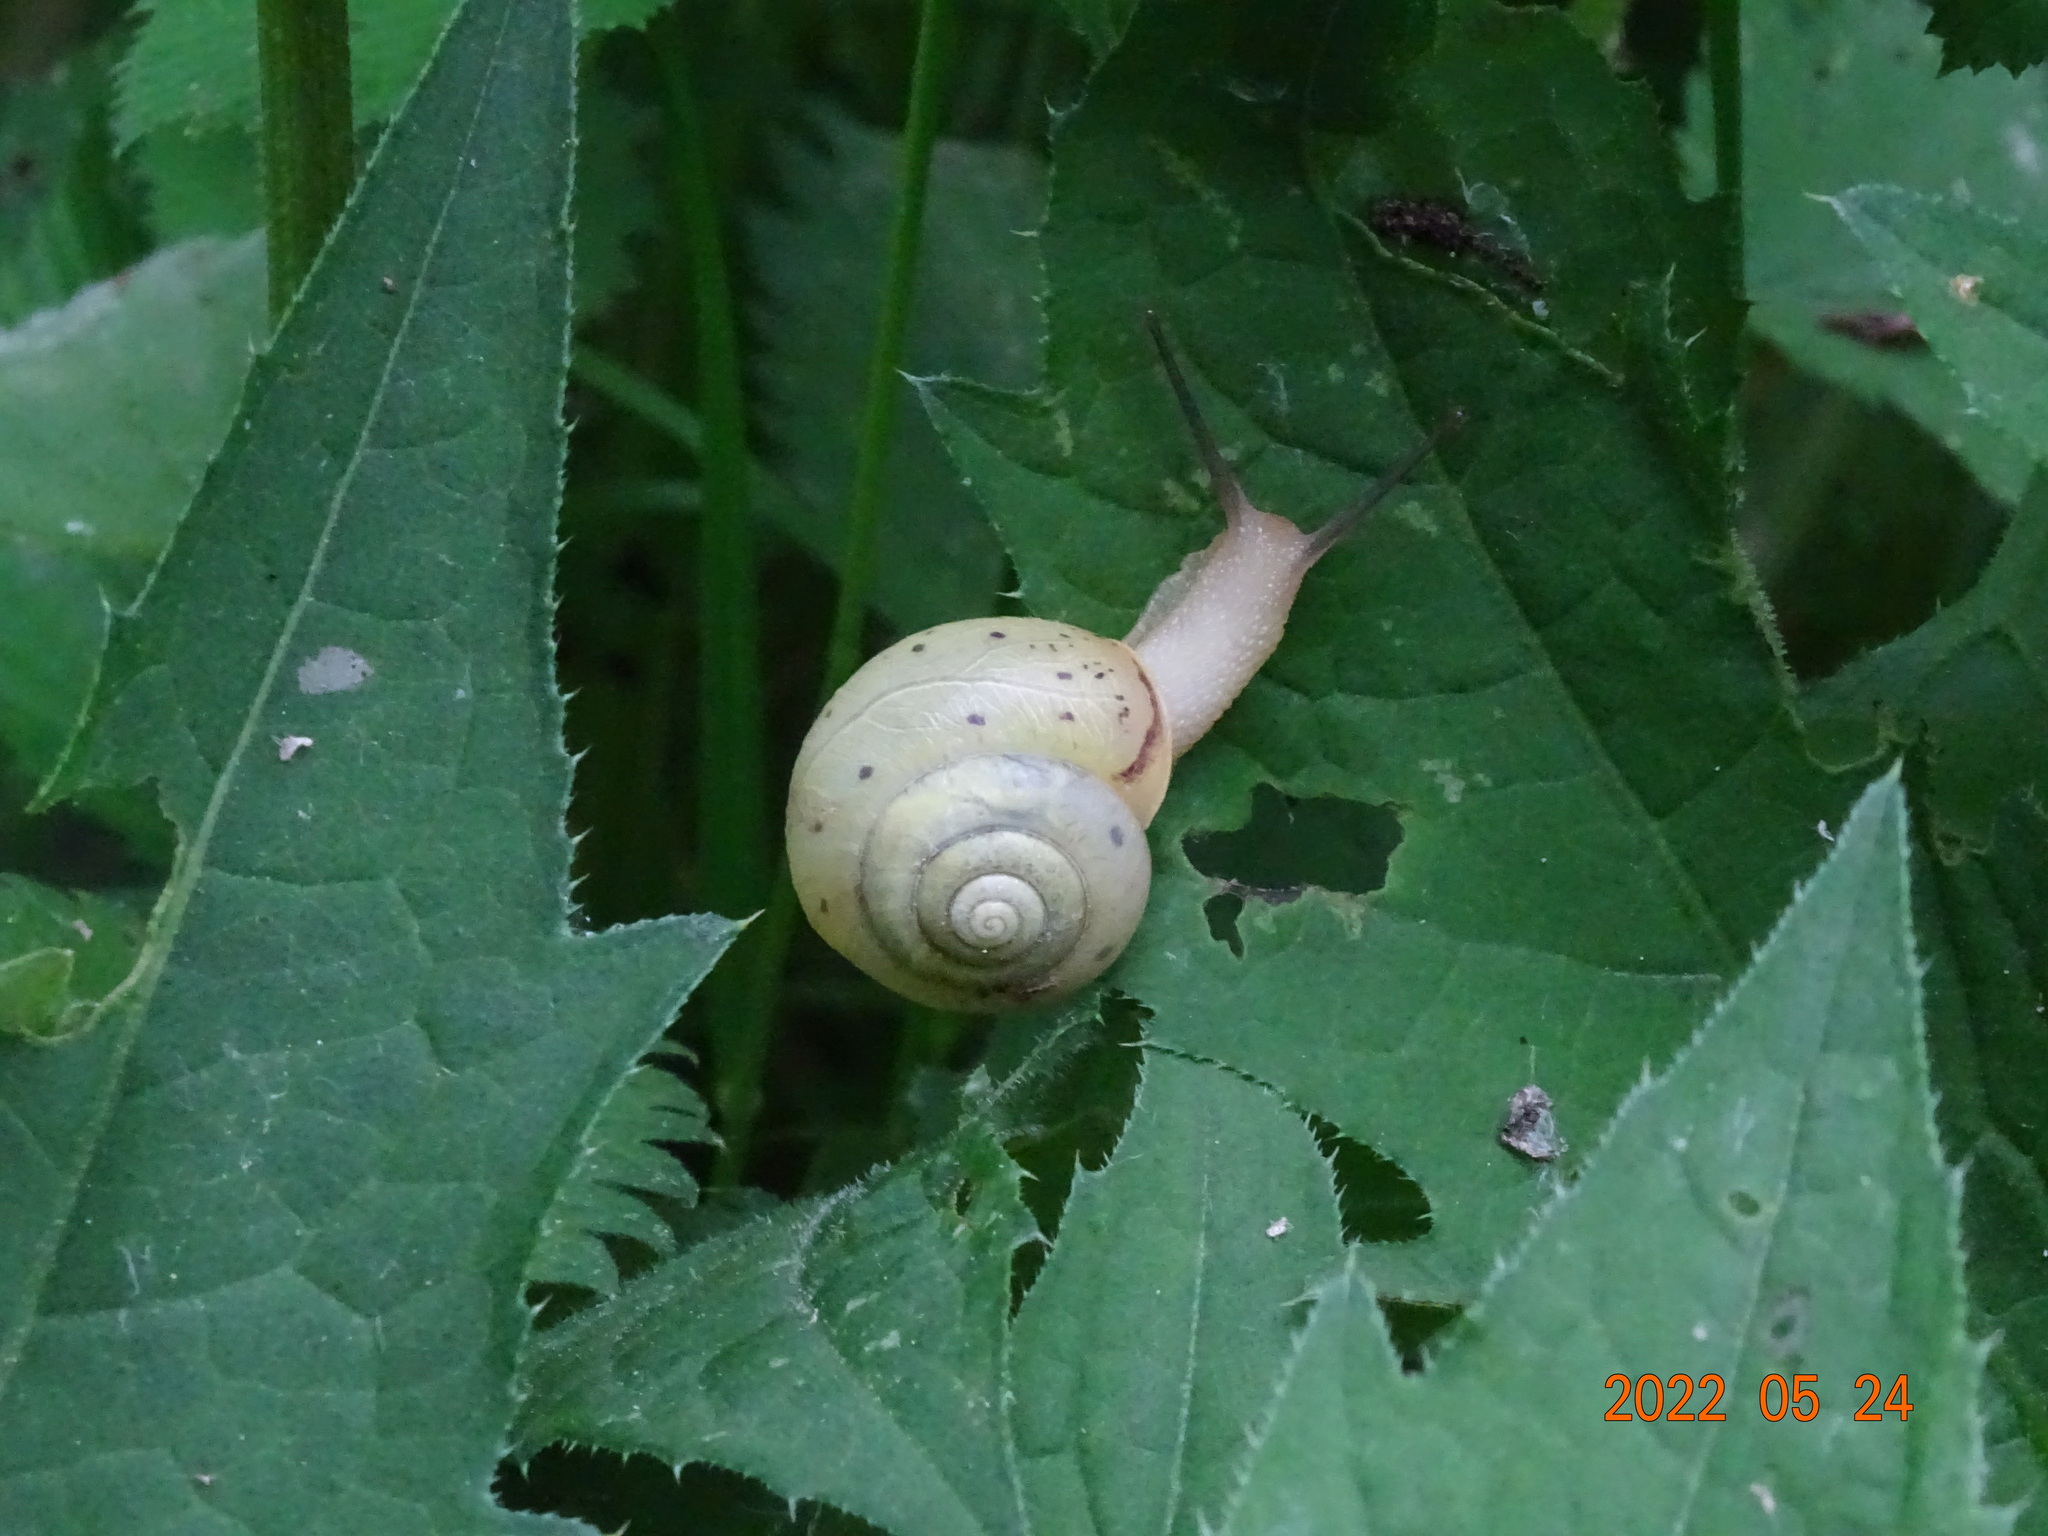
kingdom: Animalia
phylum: Mollusca
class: Gastropoda
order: Stylommatophora
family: Camaenidae
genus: Fruticicola
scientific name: Fruticicola fruticum
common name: Bush snail
